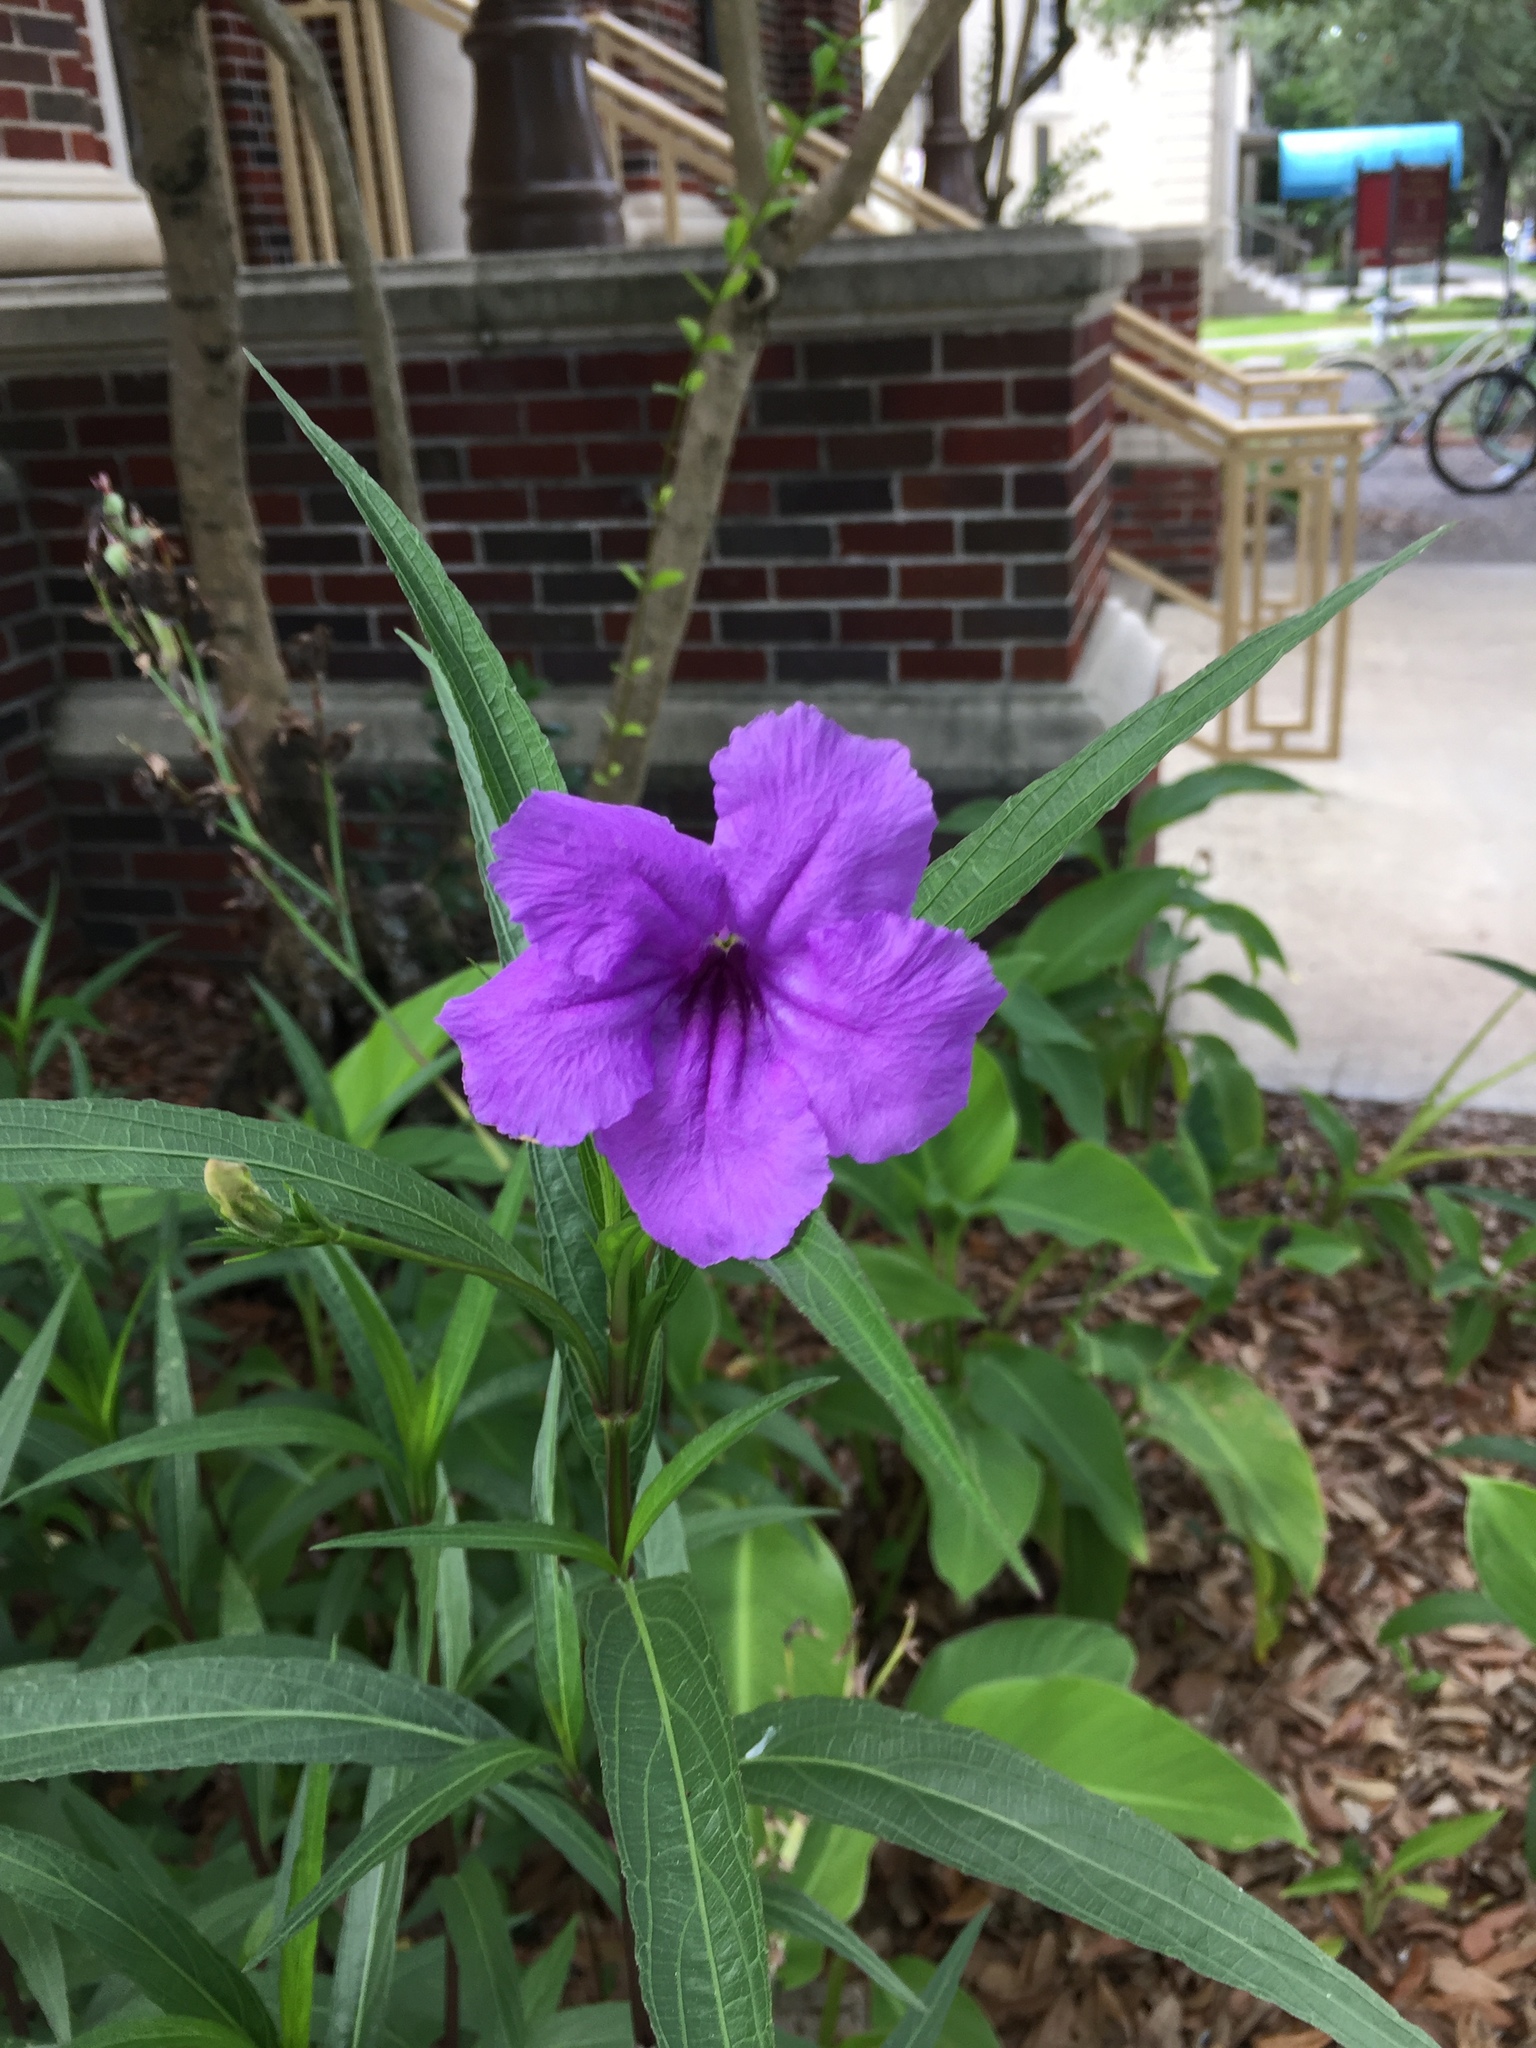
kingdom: Plantae
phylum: Tracheophyta
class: Magnoliopsida
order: Lamiales
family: Acanthaceae
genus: Ruellia
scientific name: Ruellia simplex
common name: Softseed wild petunia
